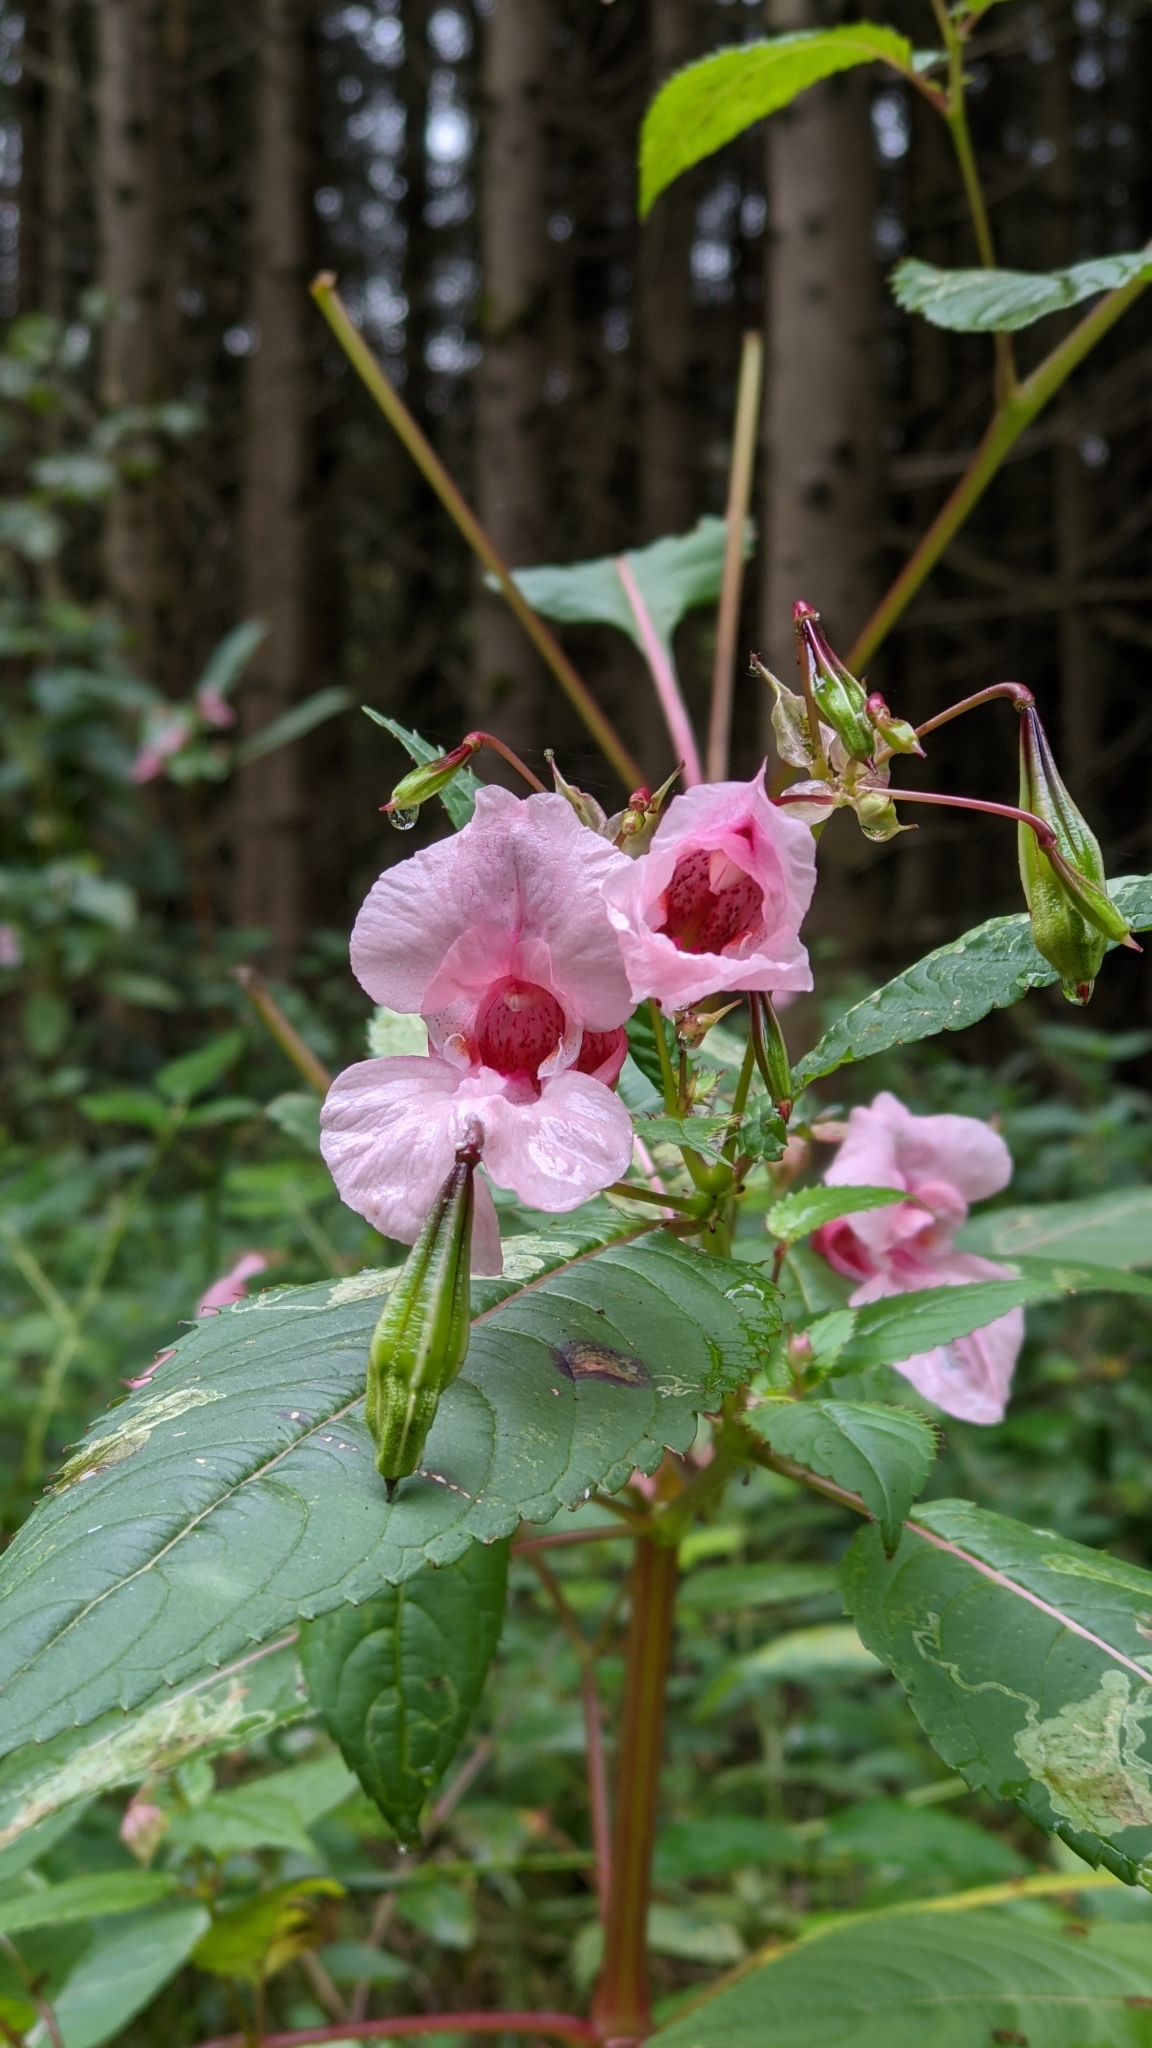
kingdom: Plantae
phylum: Tracheophyta
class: Magnoliopsida
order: Ericales
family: Balsaminaceae
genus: Impatiens
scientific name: Impatiens glandulifera
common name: Himalayan balsam
